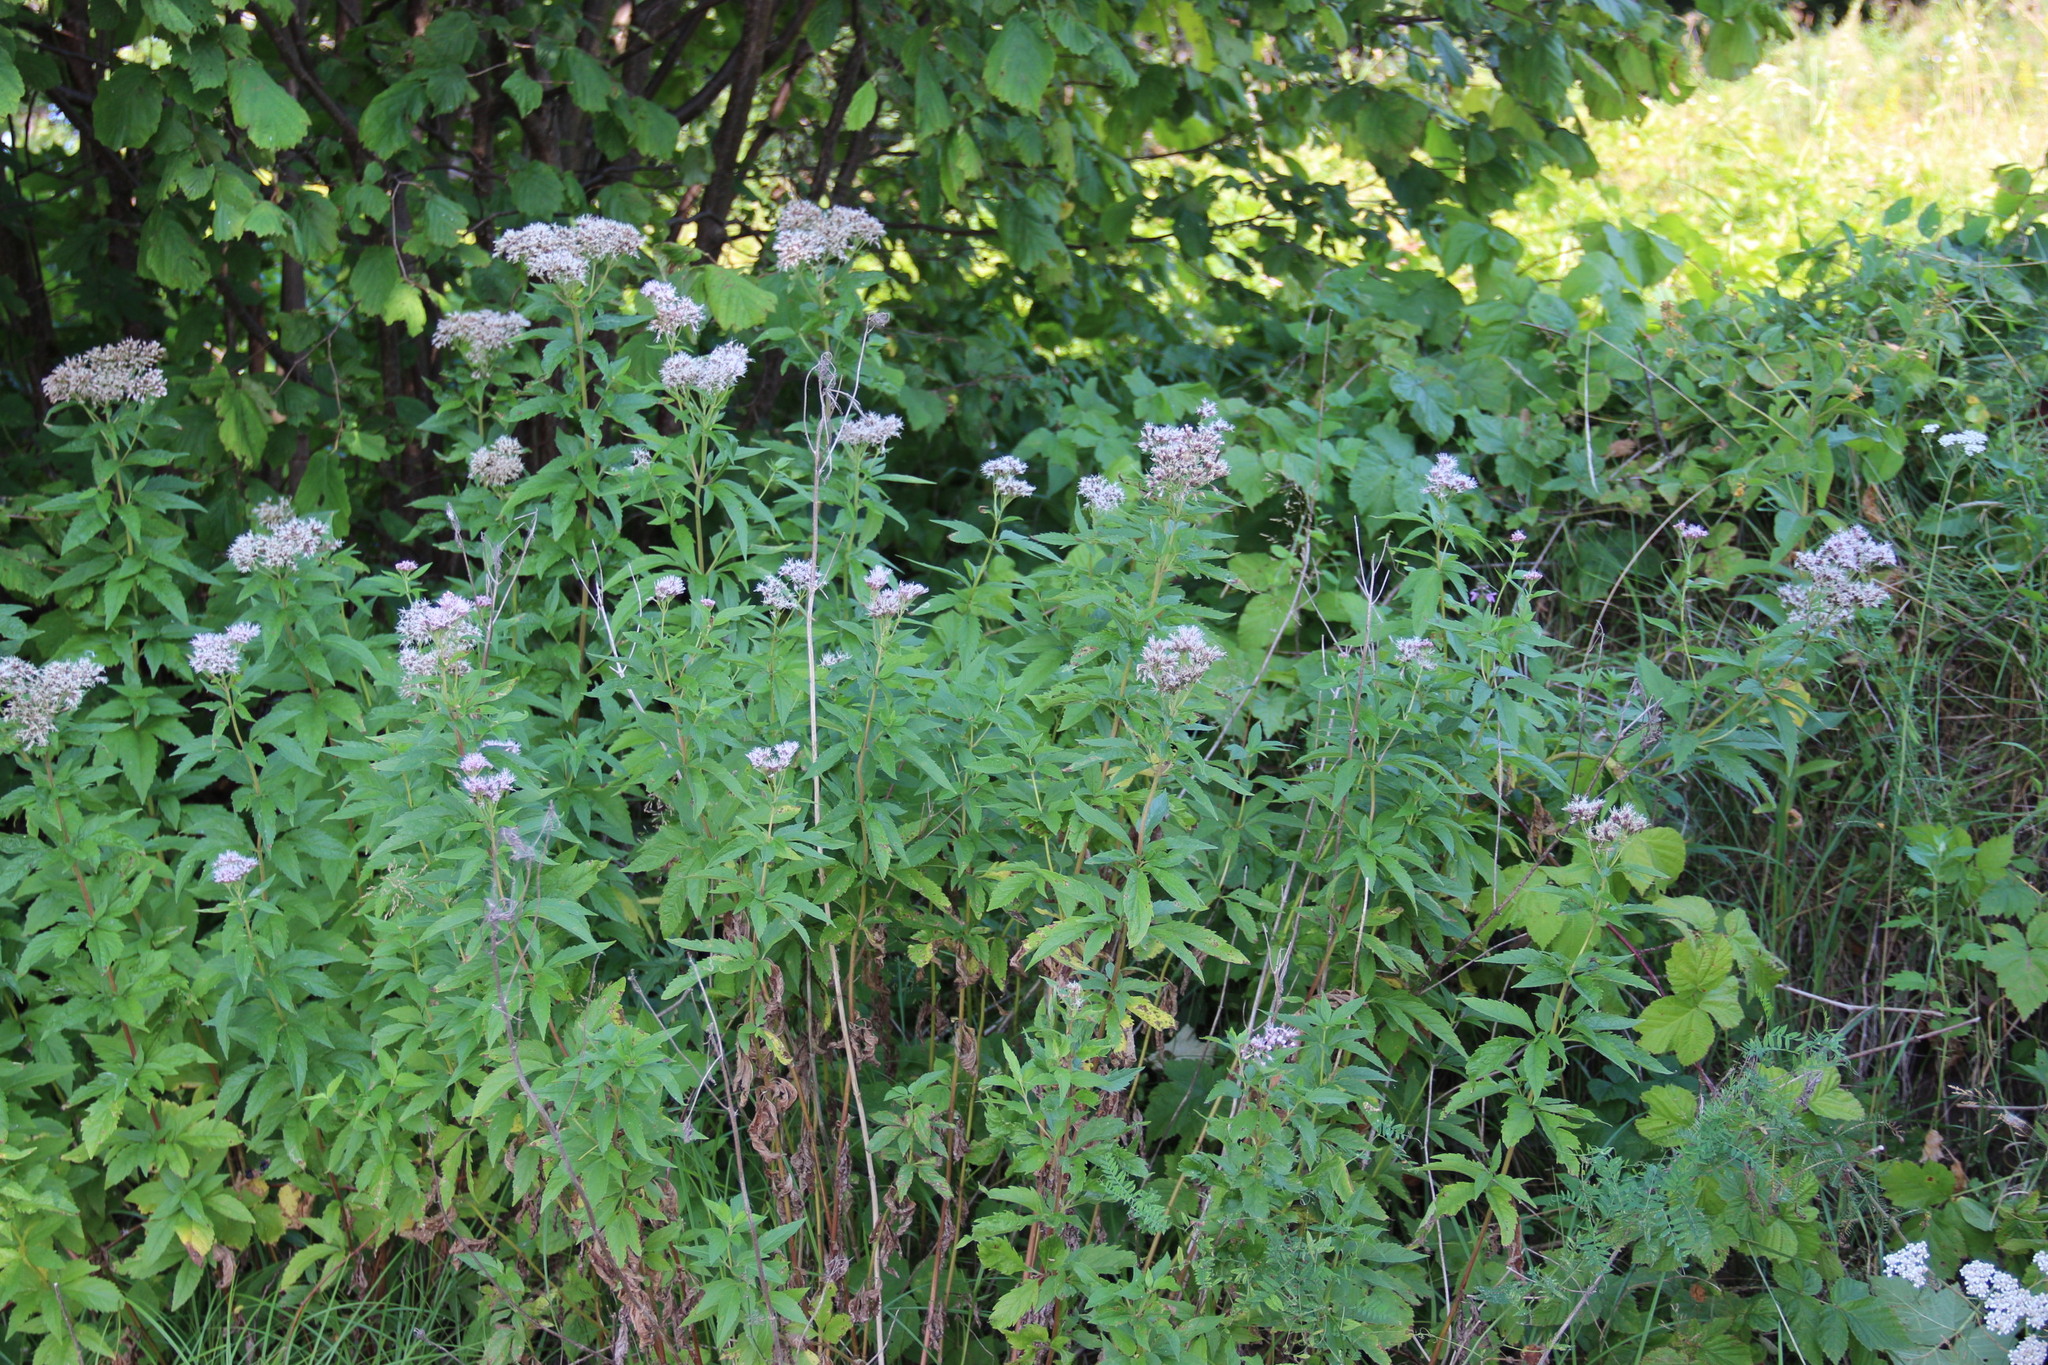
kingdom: Plantae
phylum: Tracheophyta
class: Magnoliopsida
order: Asterales
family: Asteraceae
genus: Eupatorium
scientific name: Eupatorium cannabinum
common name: Hemp-agrimony
